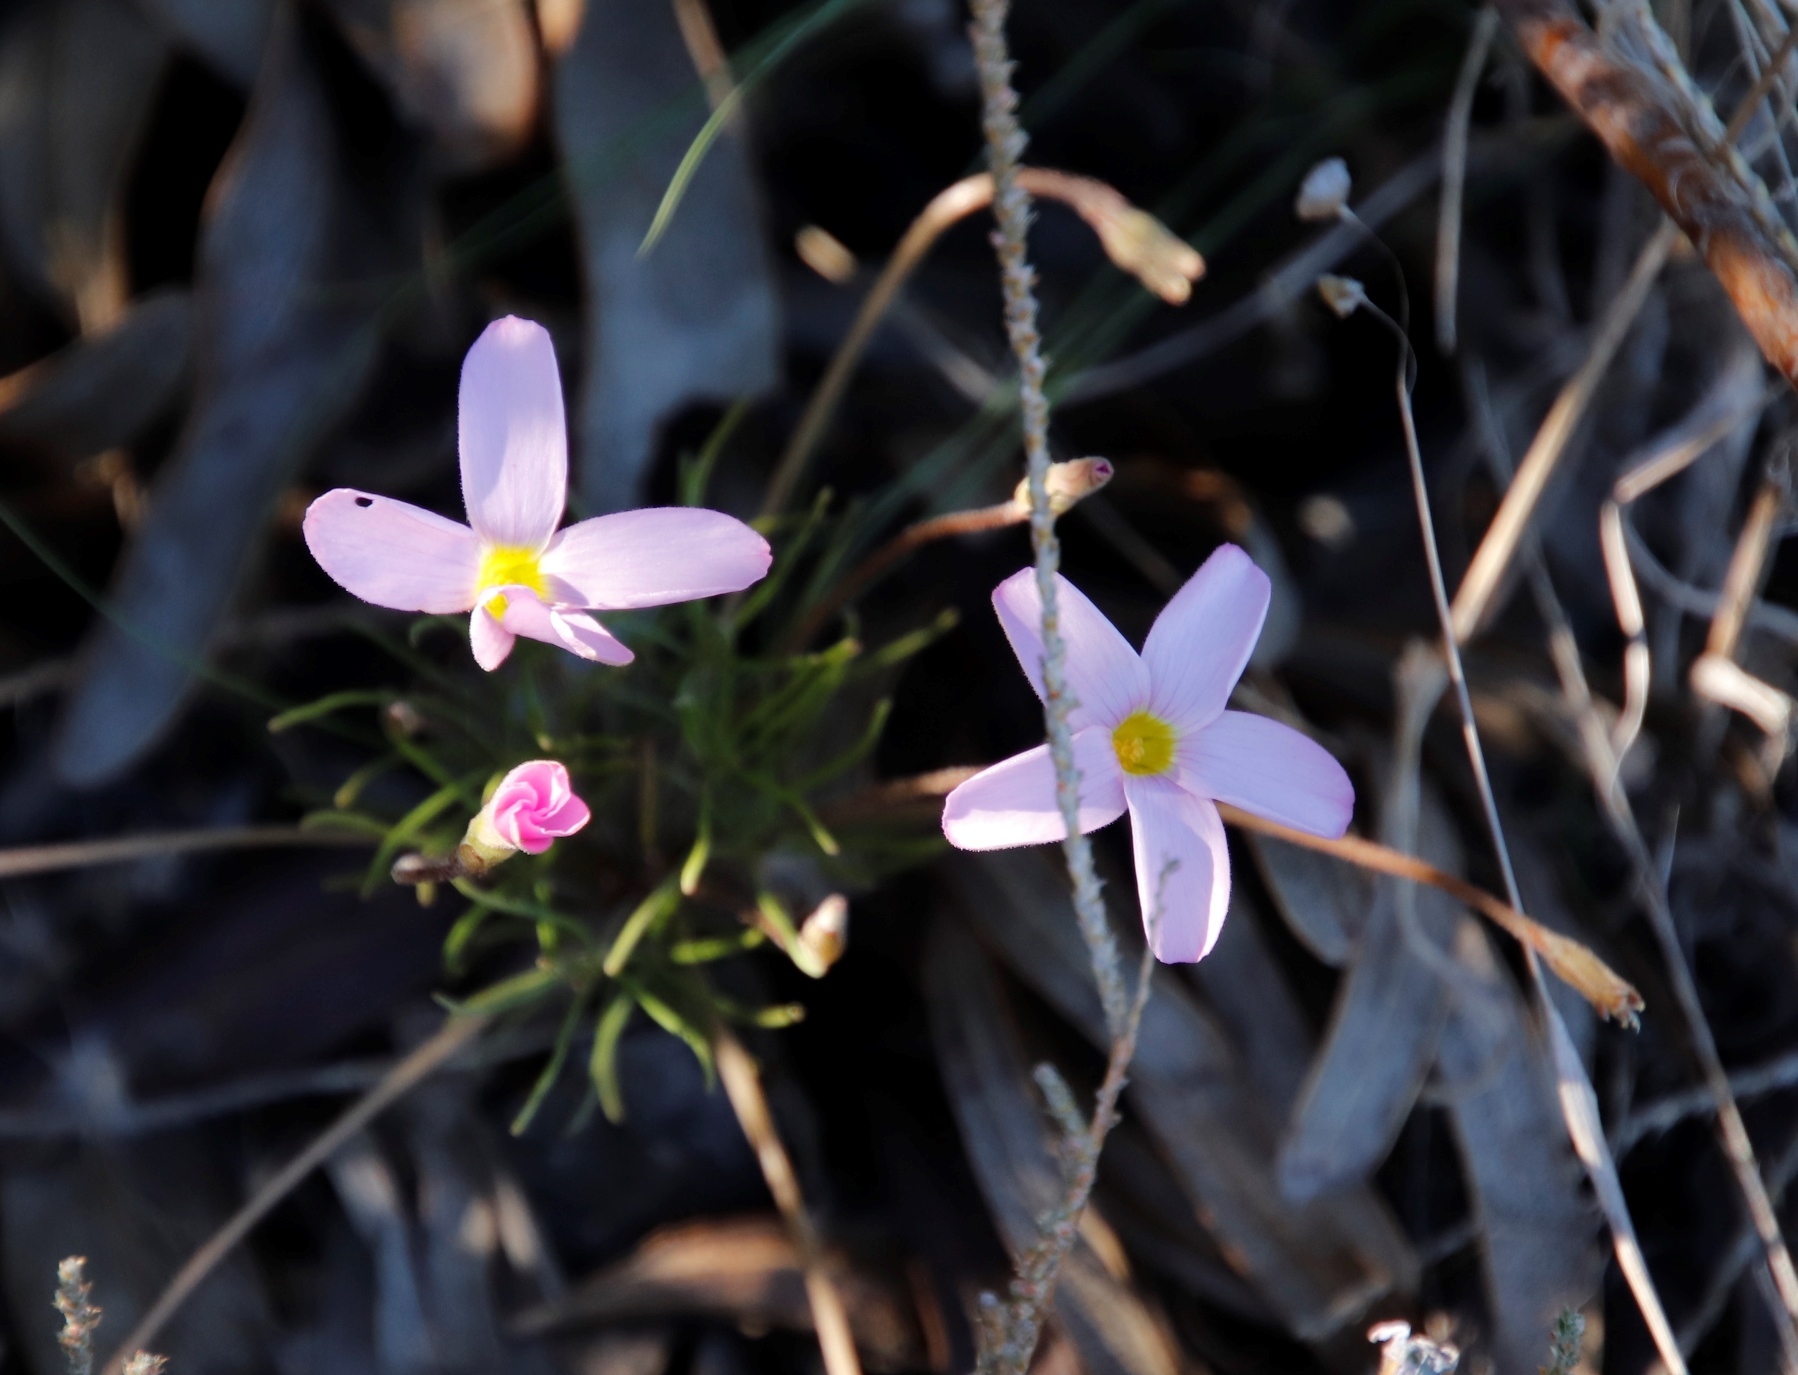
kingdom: Plantae
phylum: Tracheophyta
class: Magnoliopsida
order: Oxalidales
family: Oxalidaceae
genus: Oxalis
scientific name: Oxalis polyphylla
